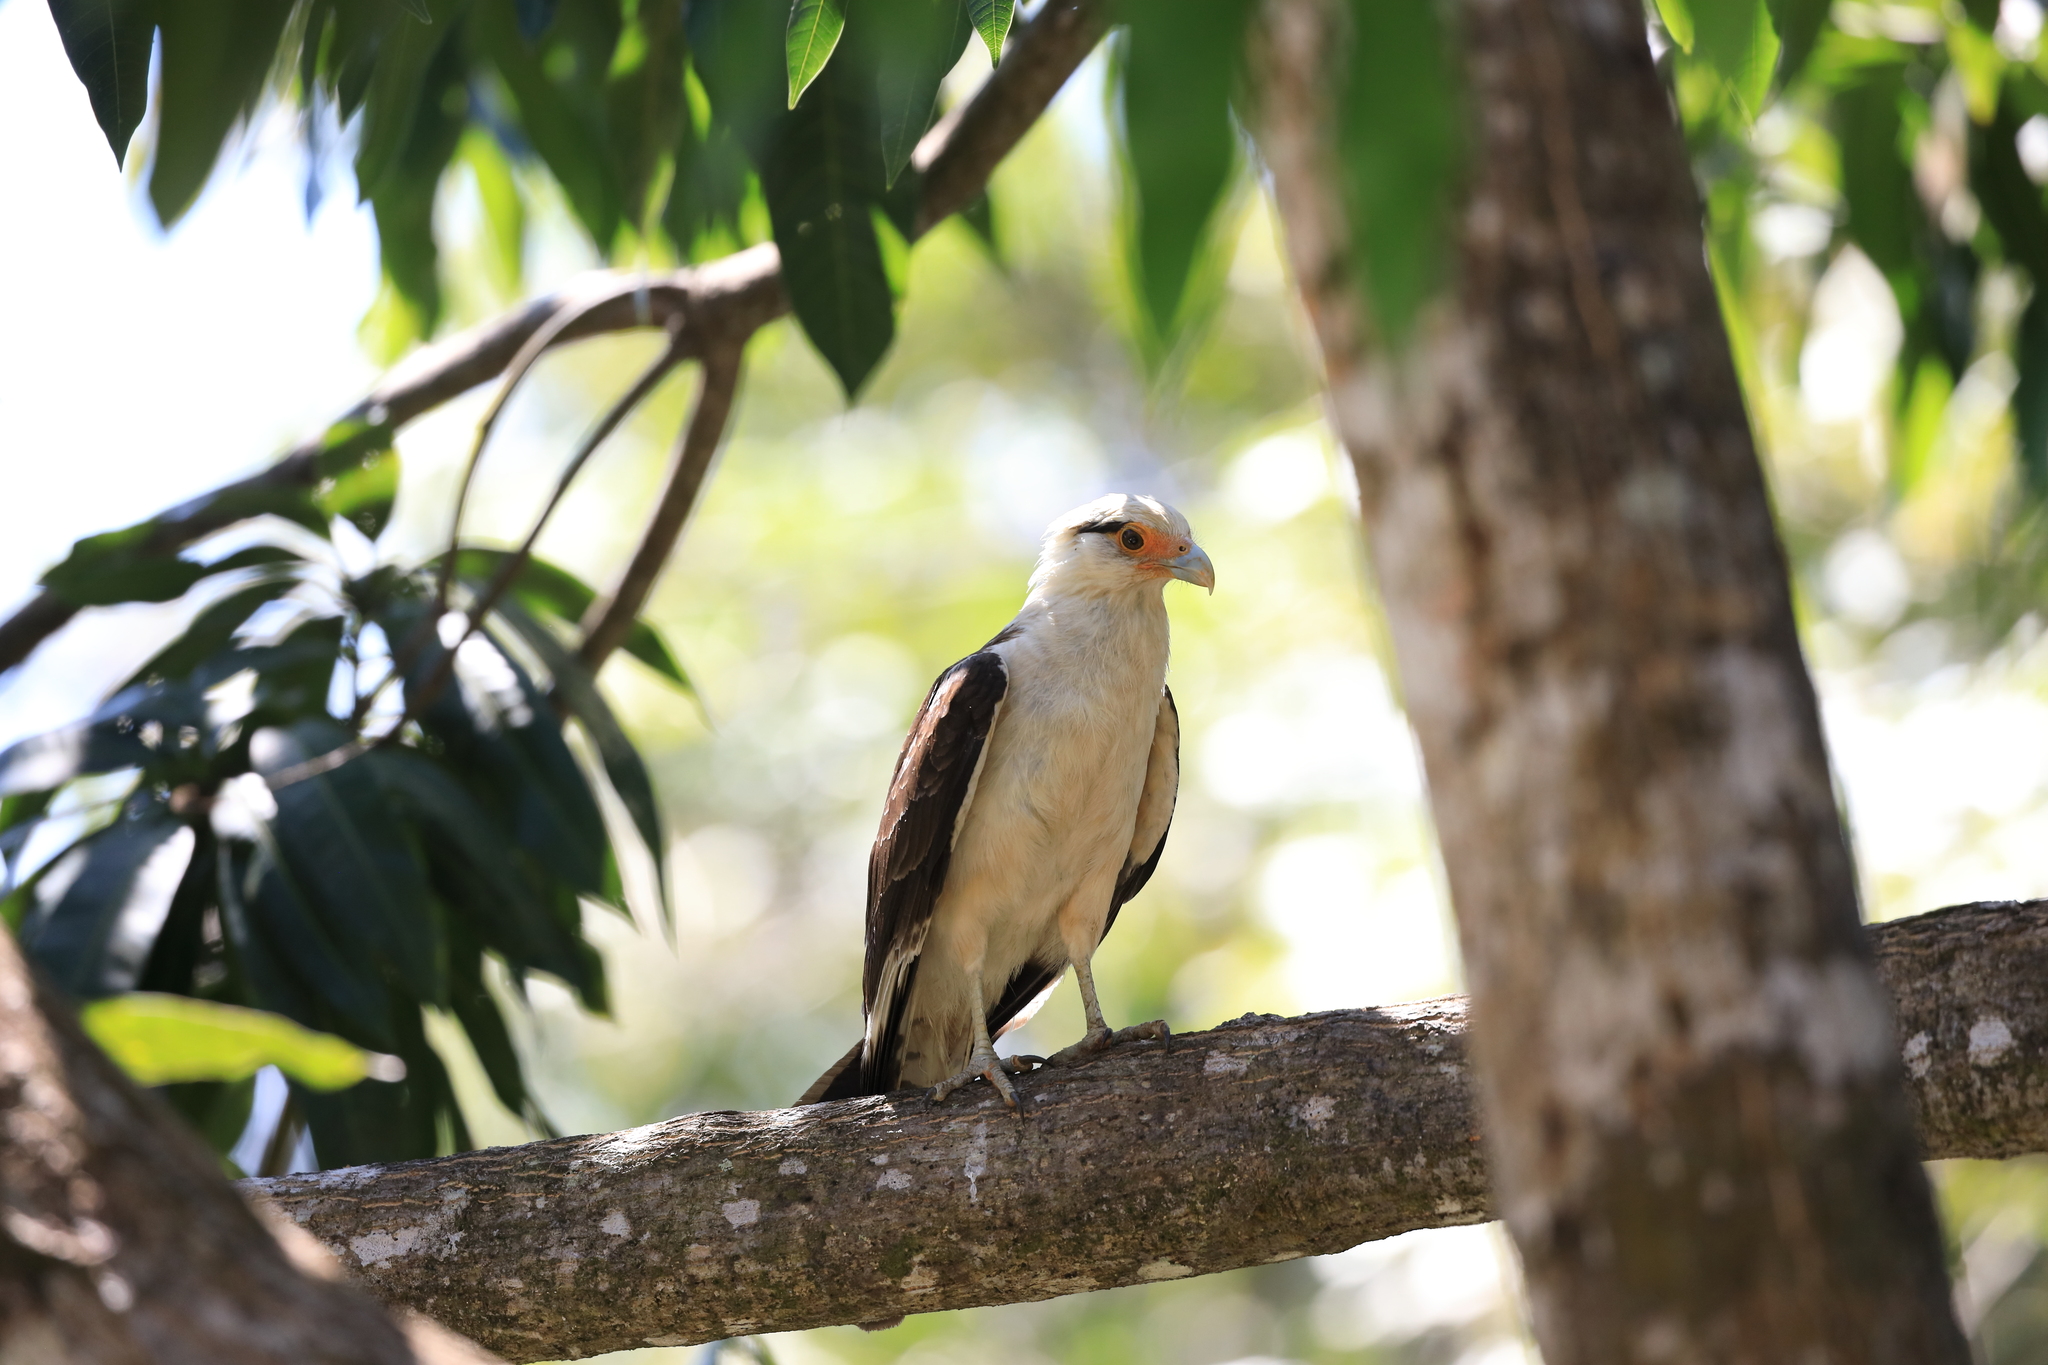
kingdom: Animalia
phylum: Chordata
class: Aves
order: Falconiformes
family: Falconidae
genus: Daptrius
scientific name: Daptrius
